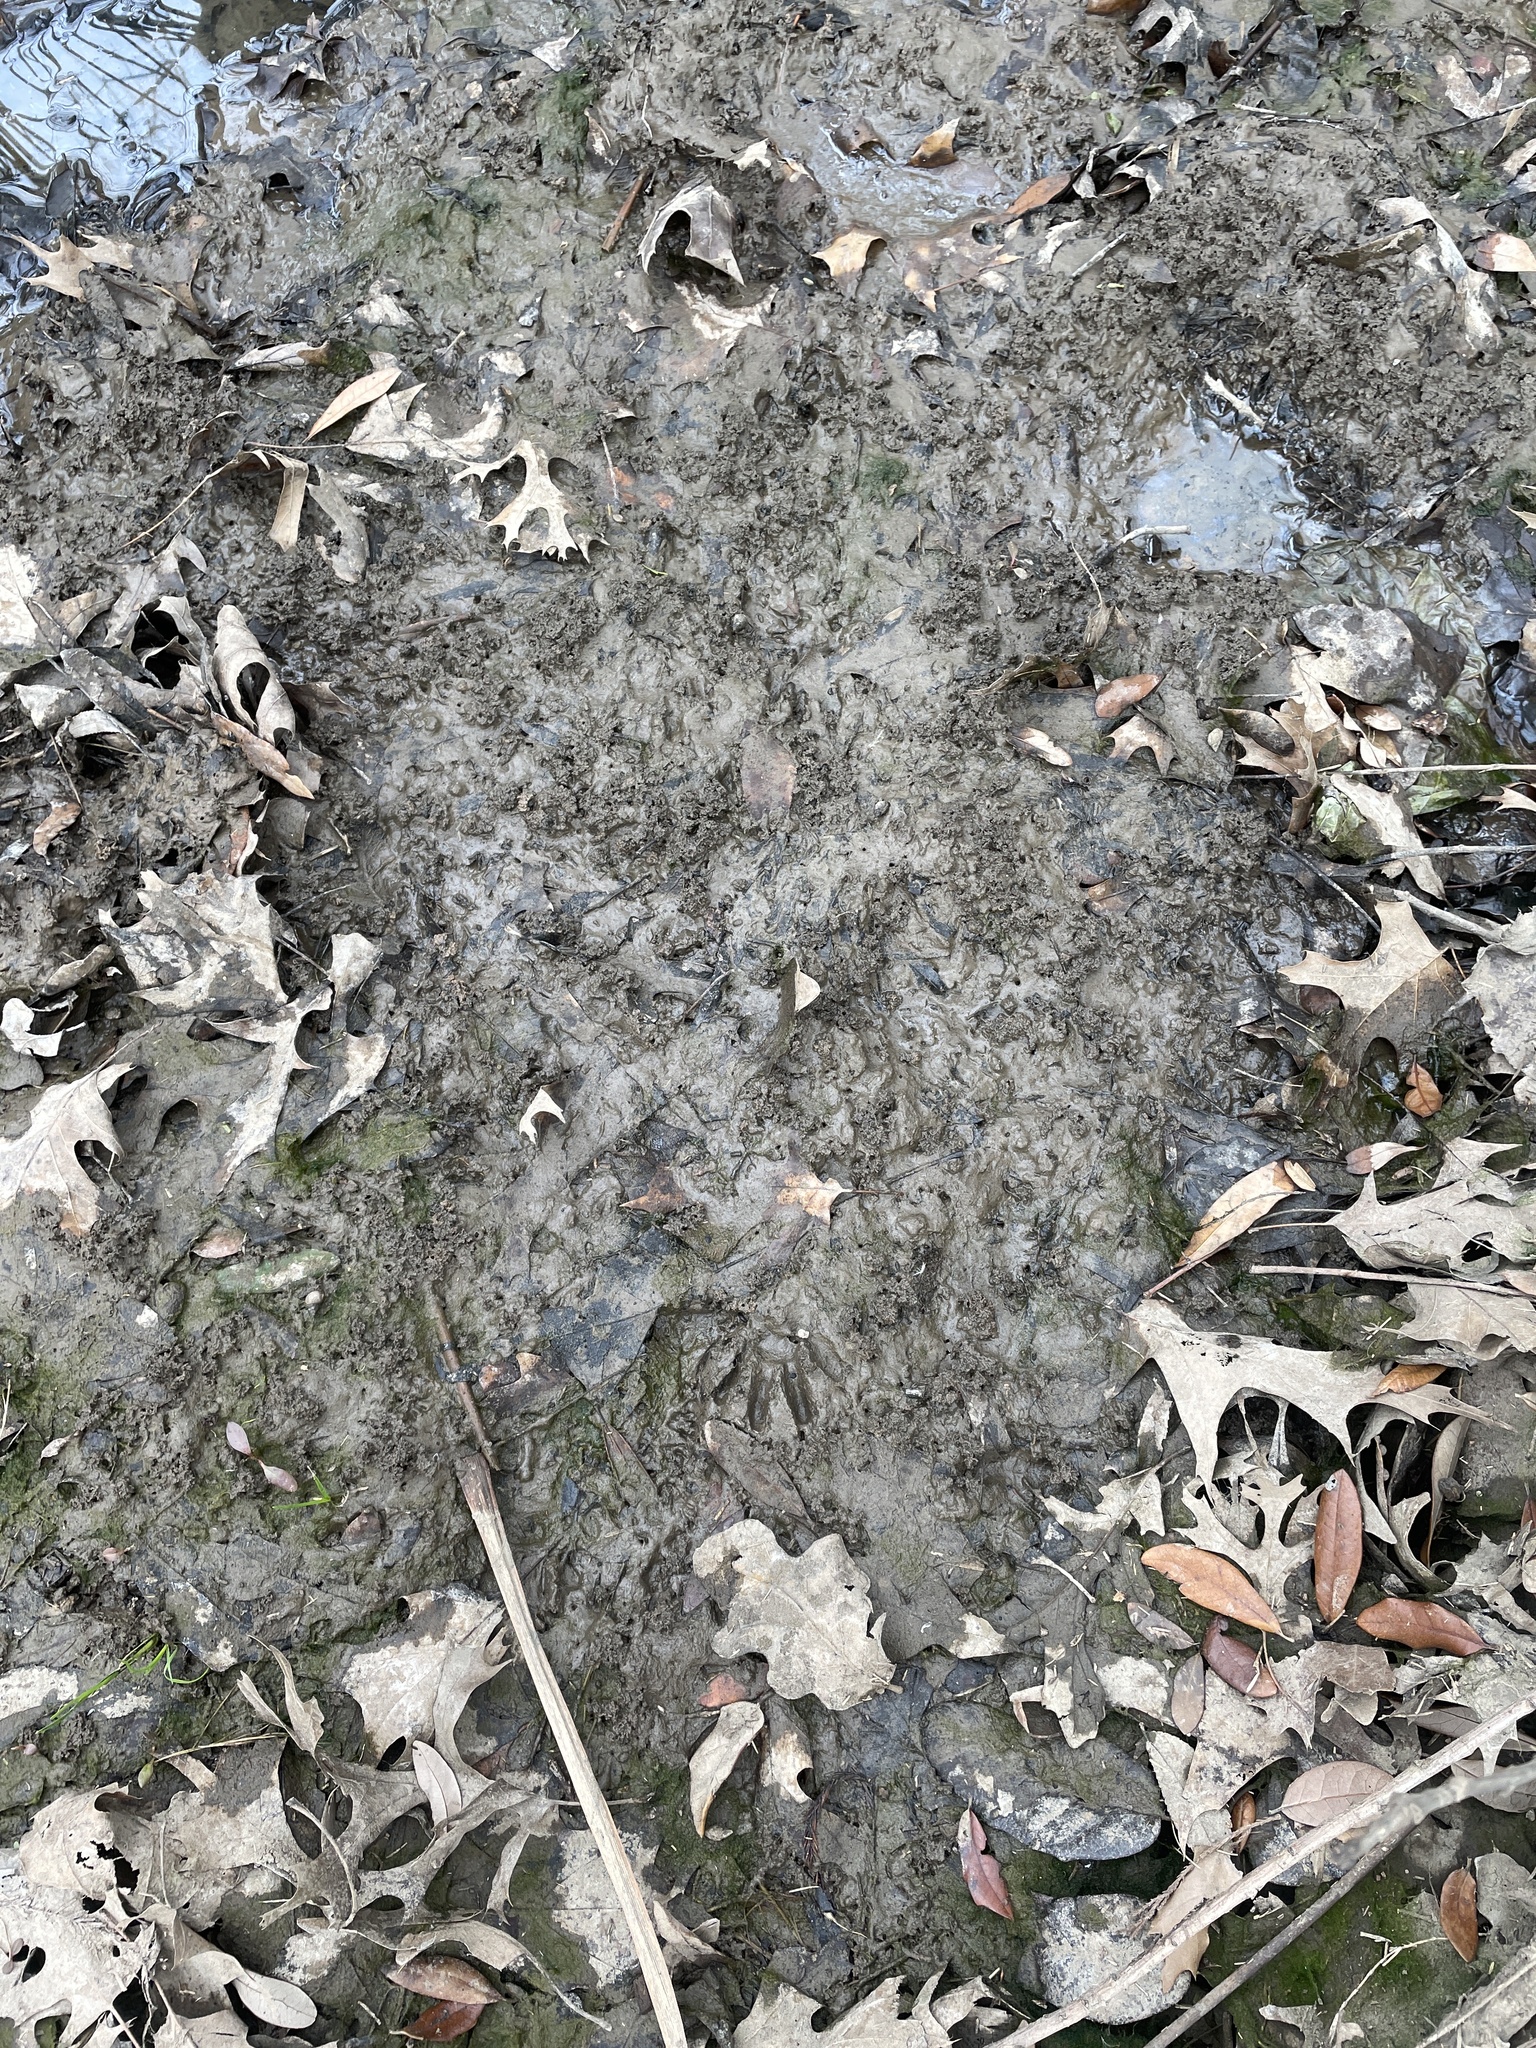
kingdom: Animalia
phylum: Chordata
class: Mammalia
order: Carnivora
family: Procyonidae
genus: Procyon
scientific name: Procyon lotor
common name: Raccoon
